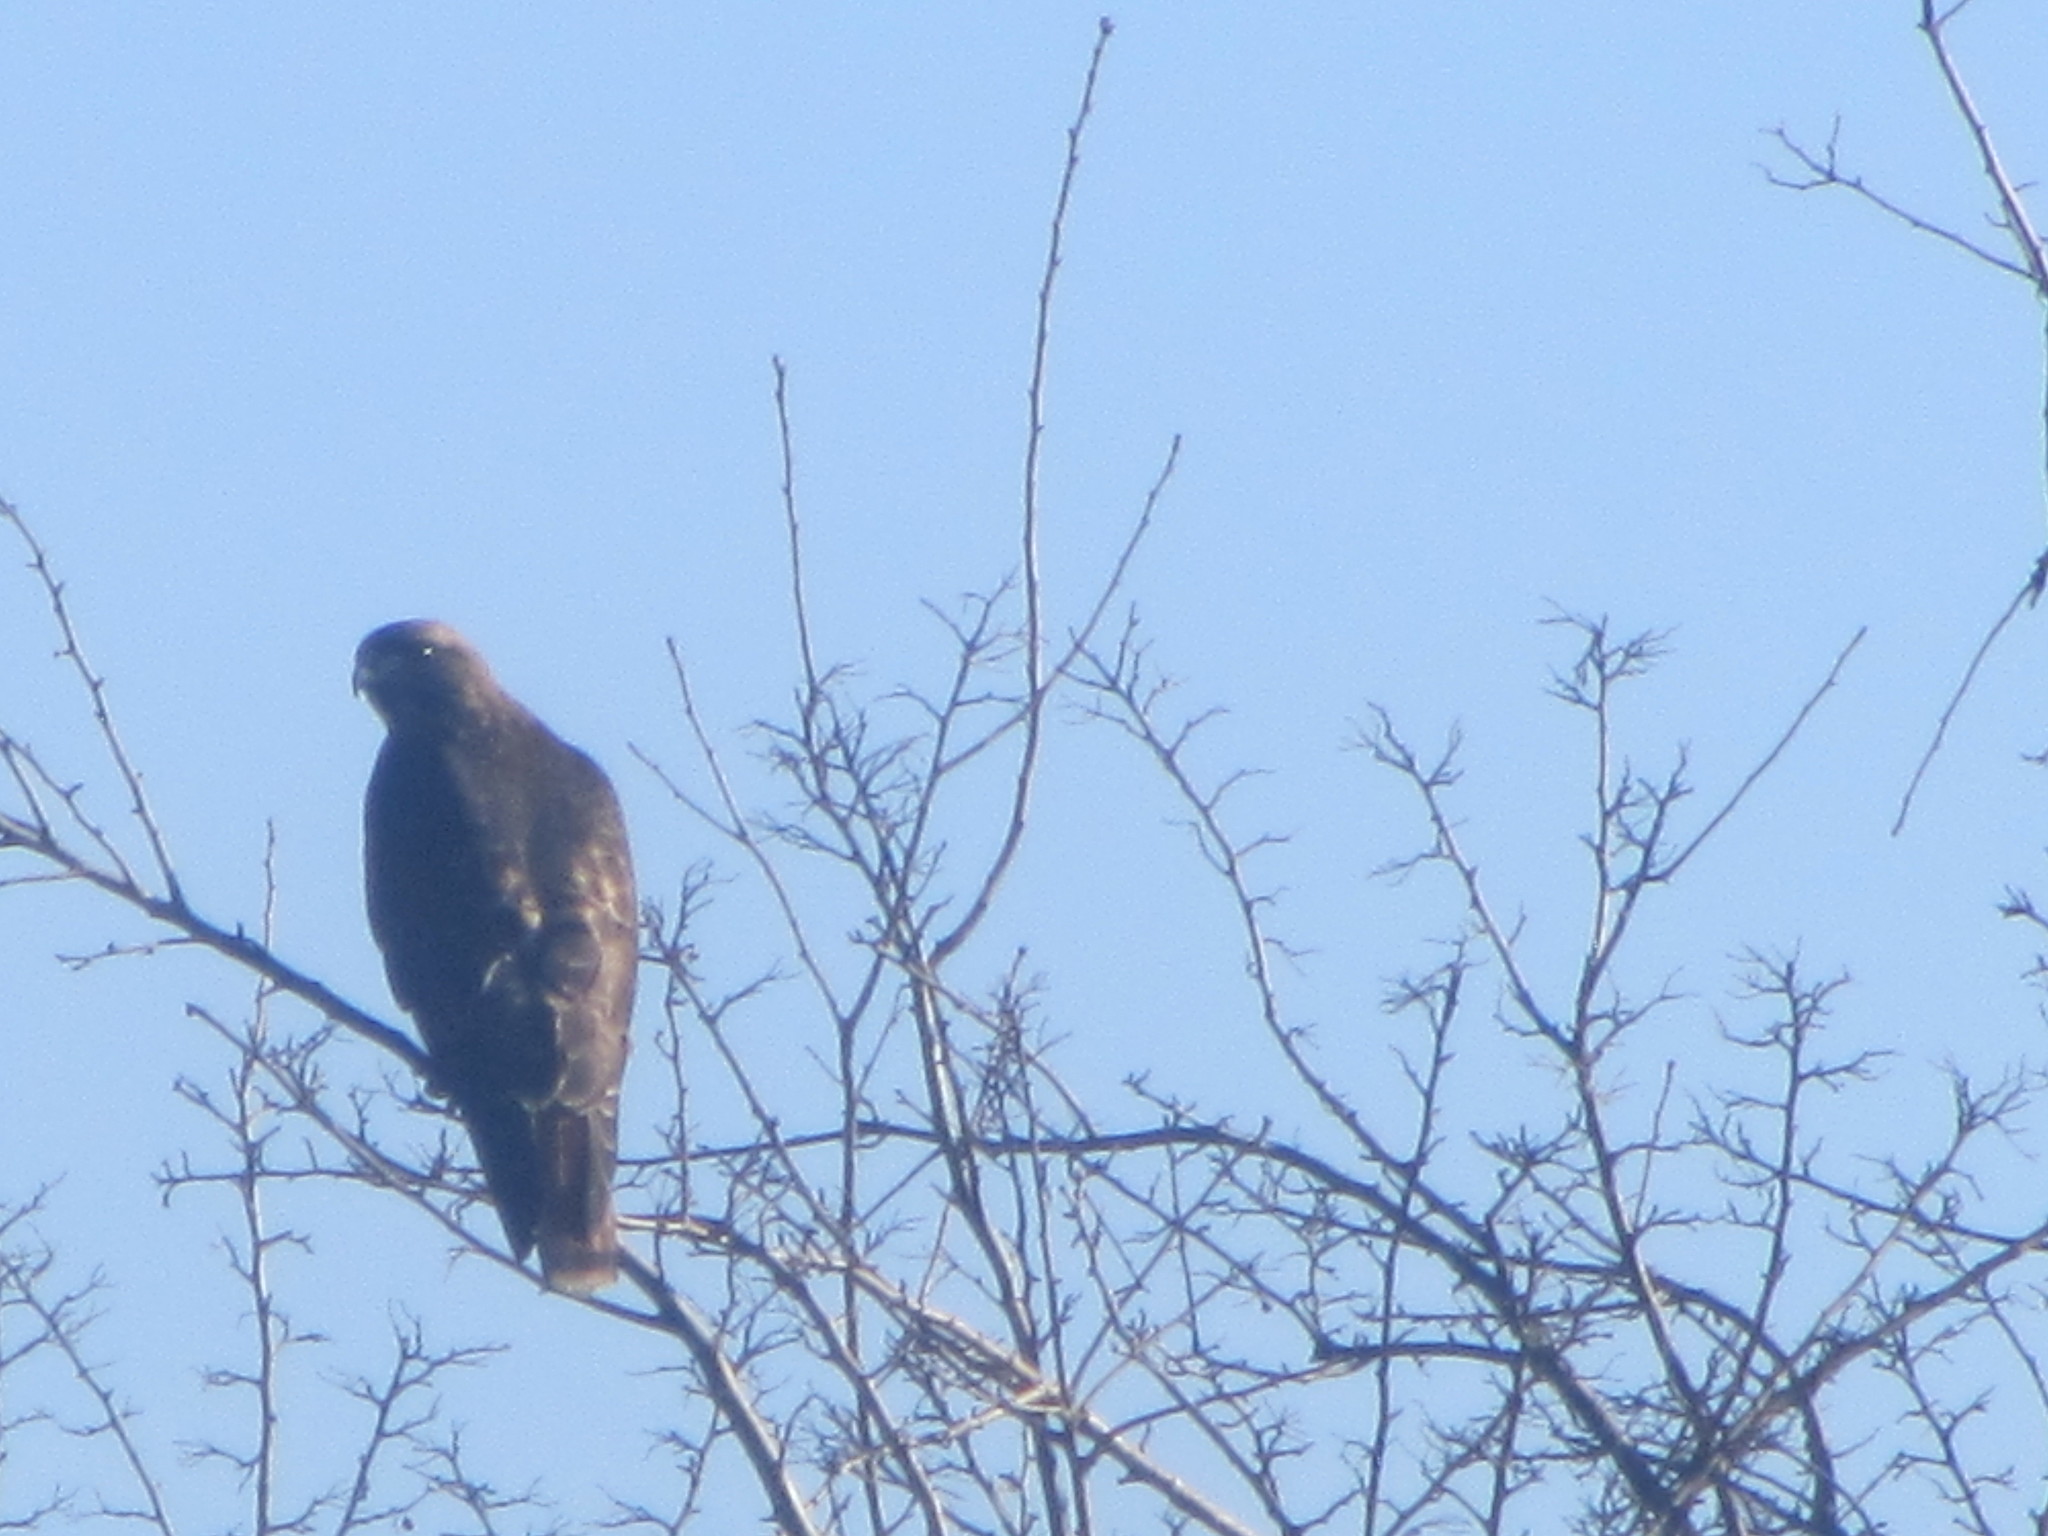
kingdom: Animalia
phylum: Chordata
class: Aves
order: Accipitriformes
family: Accipitridae
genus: Buteo
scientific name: Buteo jamaicensis
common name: Red-tailed hawk
